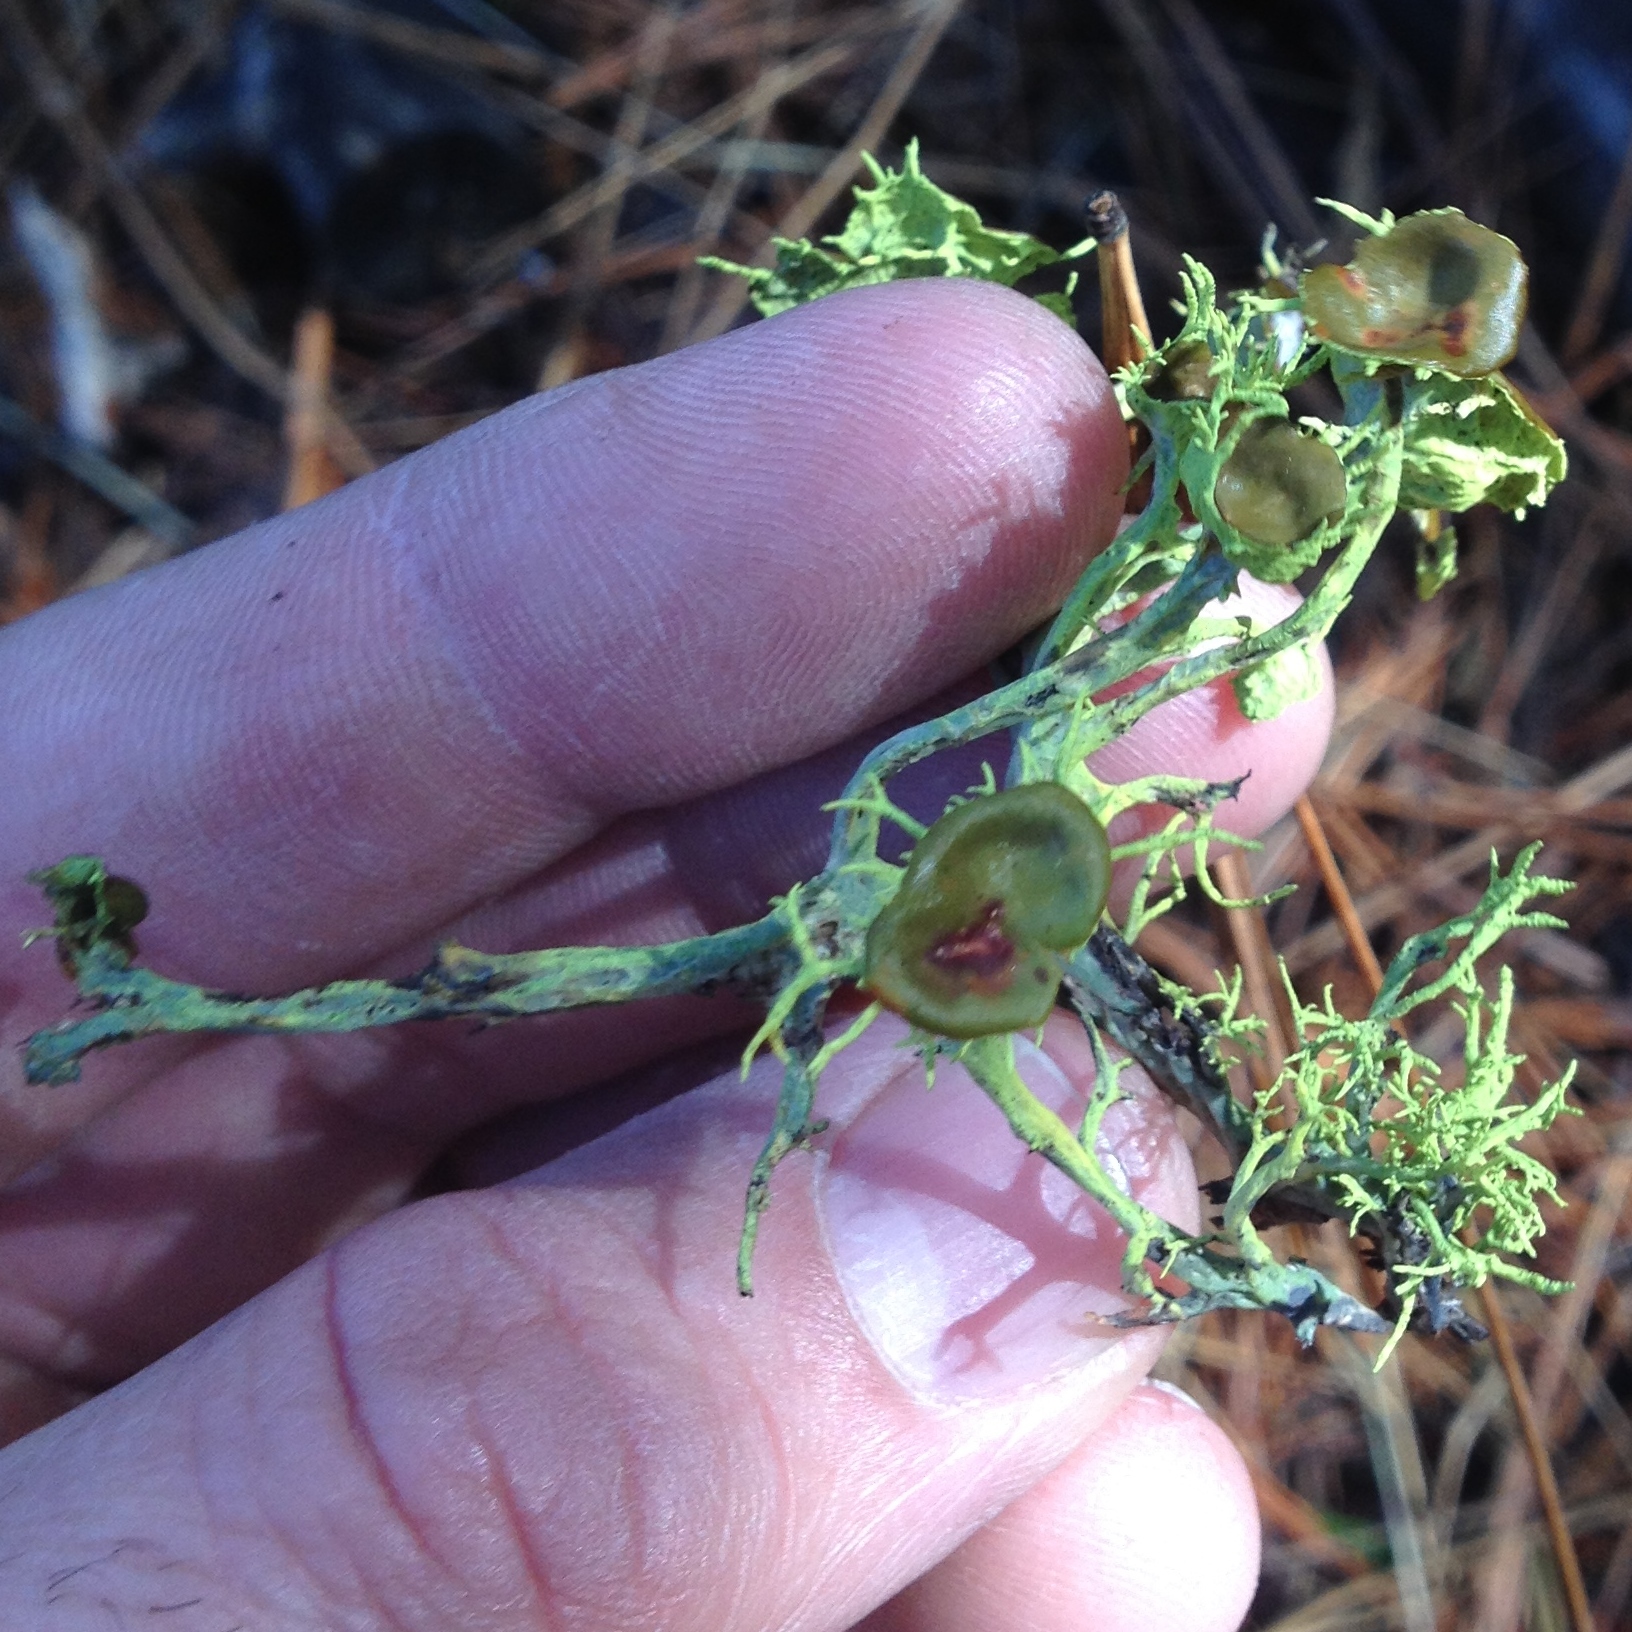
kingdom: Fungi
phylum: Ascomycota
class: Lecanoromycetes
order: Lecanorales
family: Parmeliaceae
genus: Letharia
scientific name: Letharia columbiana
